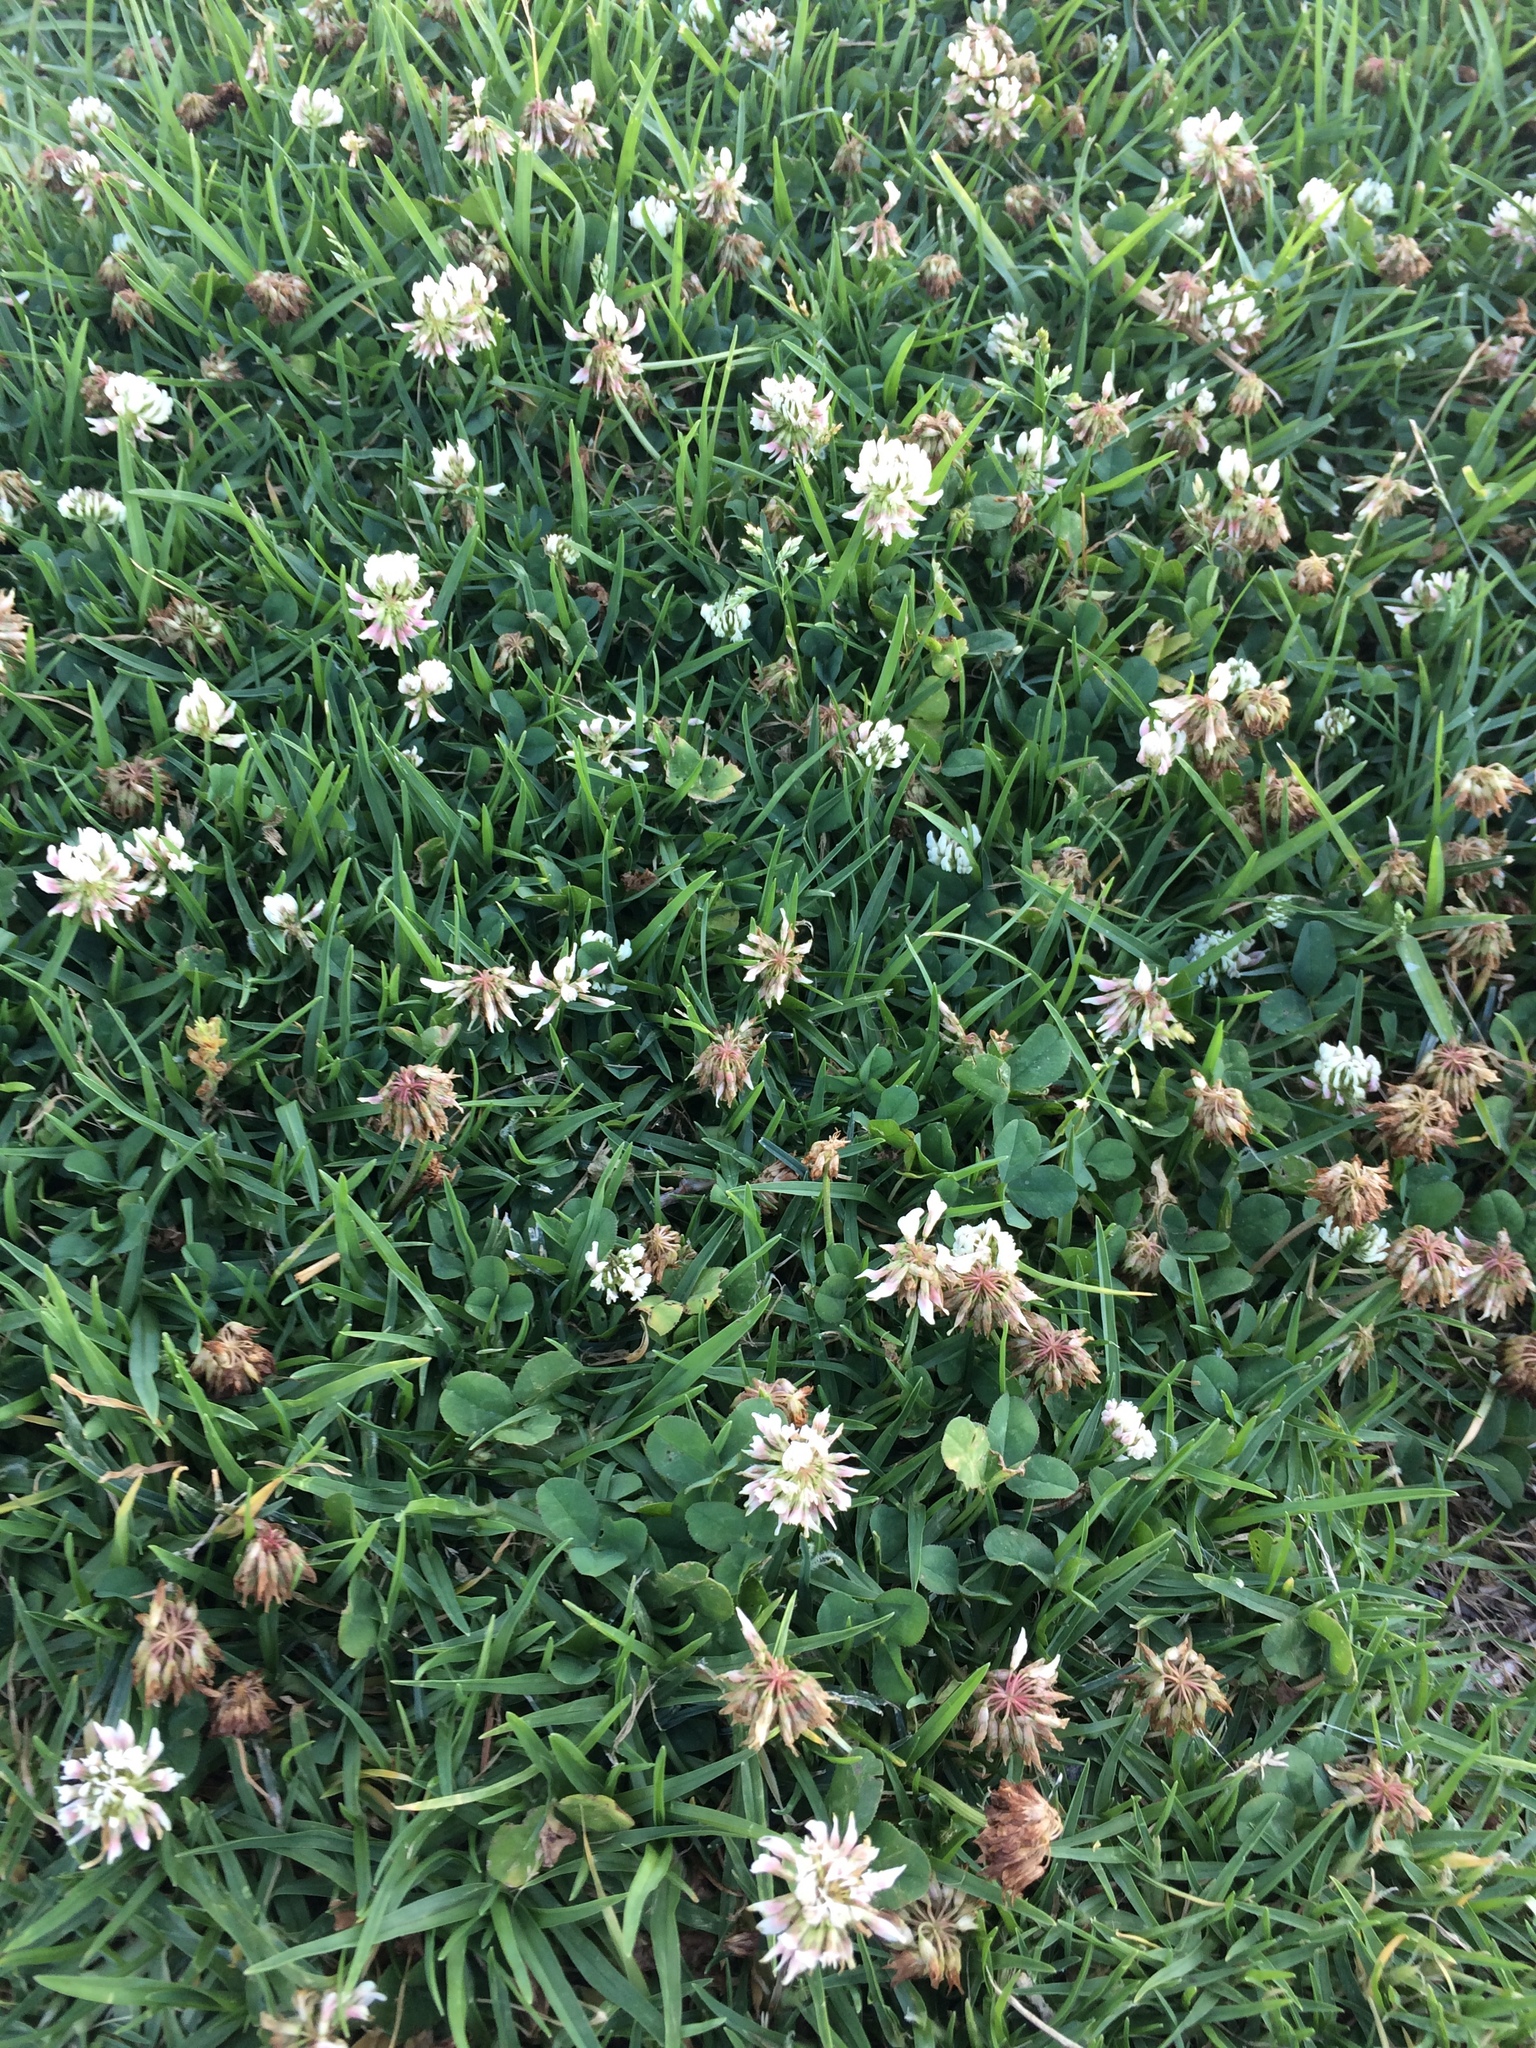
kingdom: Plantae
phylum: Tracheophyta
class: Magnoliopsida
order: Fabales
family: Fabaceae
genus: Trifolium
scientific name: Trifolium repens
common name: White clover
